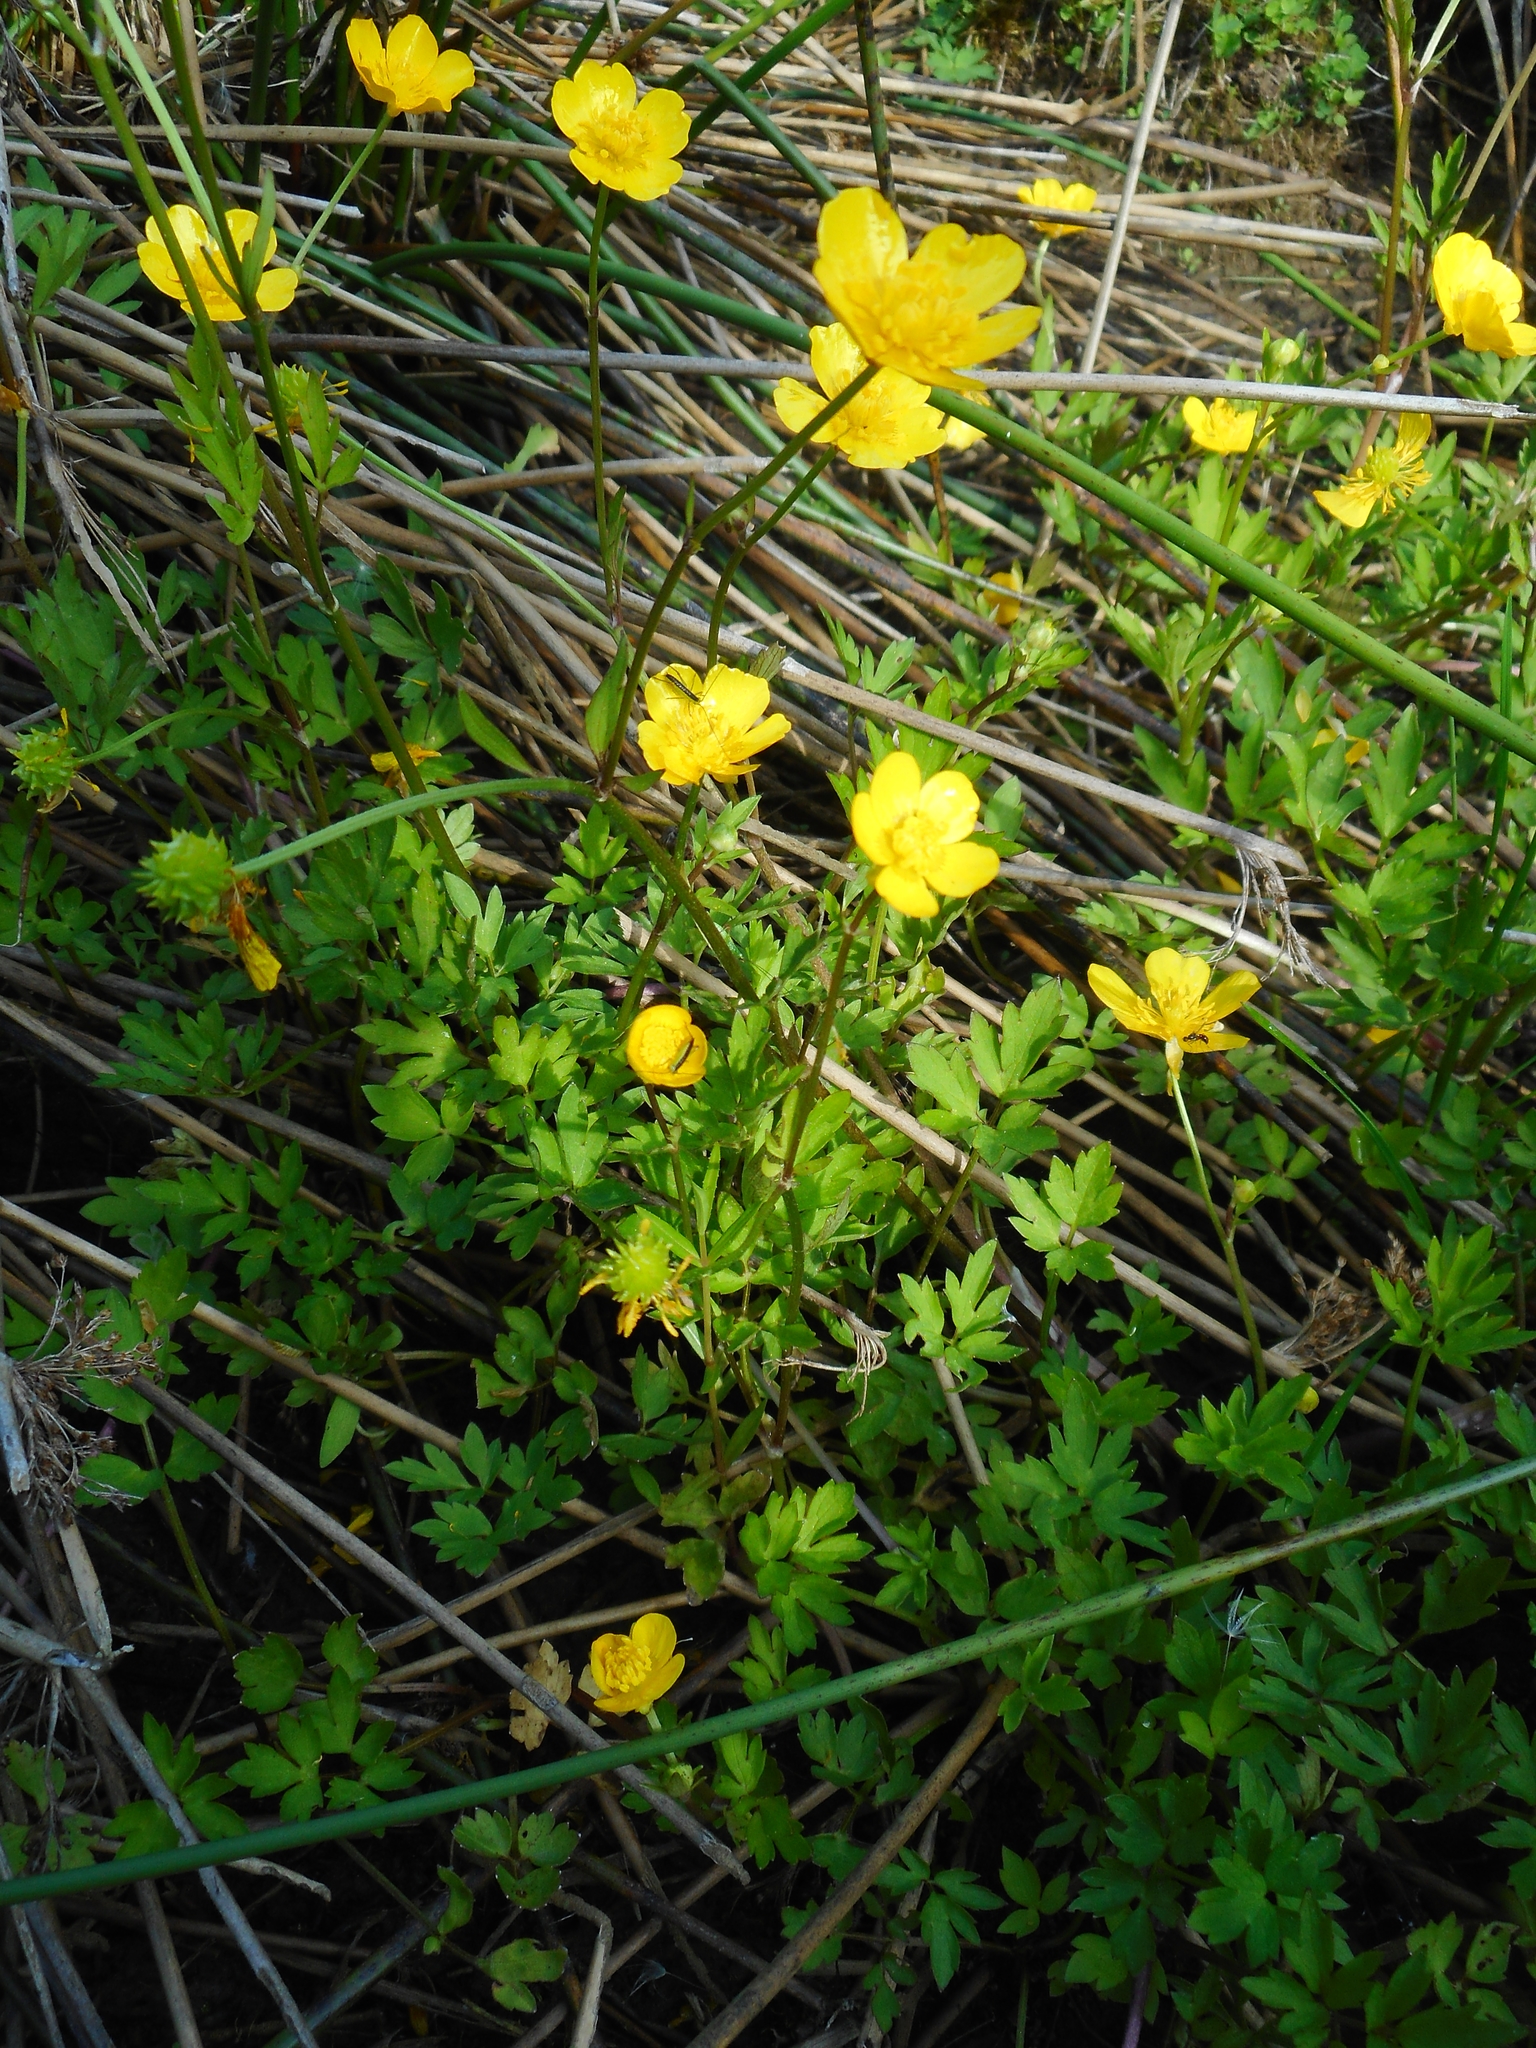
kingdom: Plantae
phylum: Tracheophyta
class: Magnoliopsida
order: Ranunculales
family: Ranunculaceae
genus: Ranunculus
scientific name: Ranunculus repens
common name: Creeping buttercup
